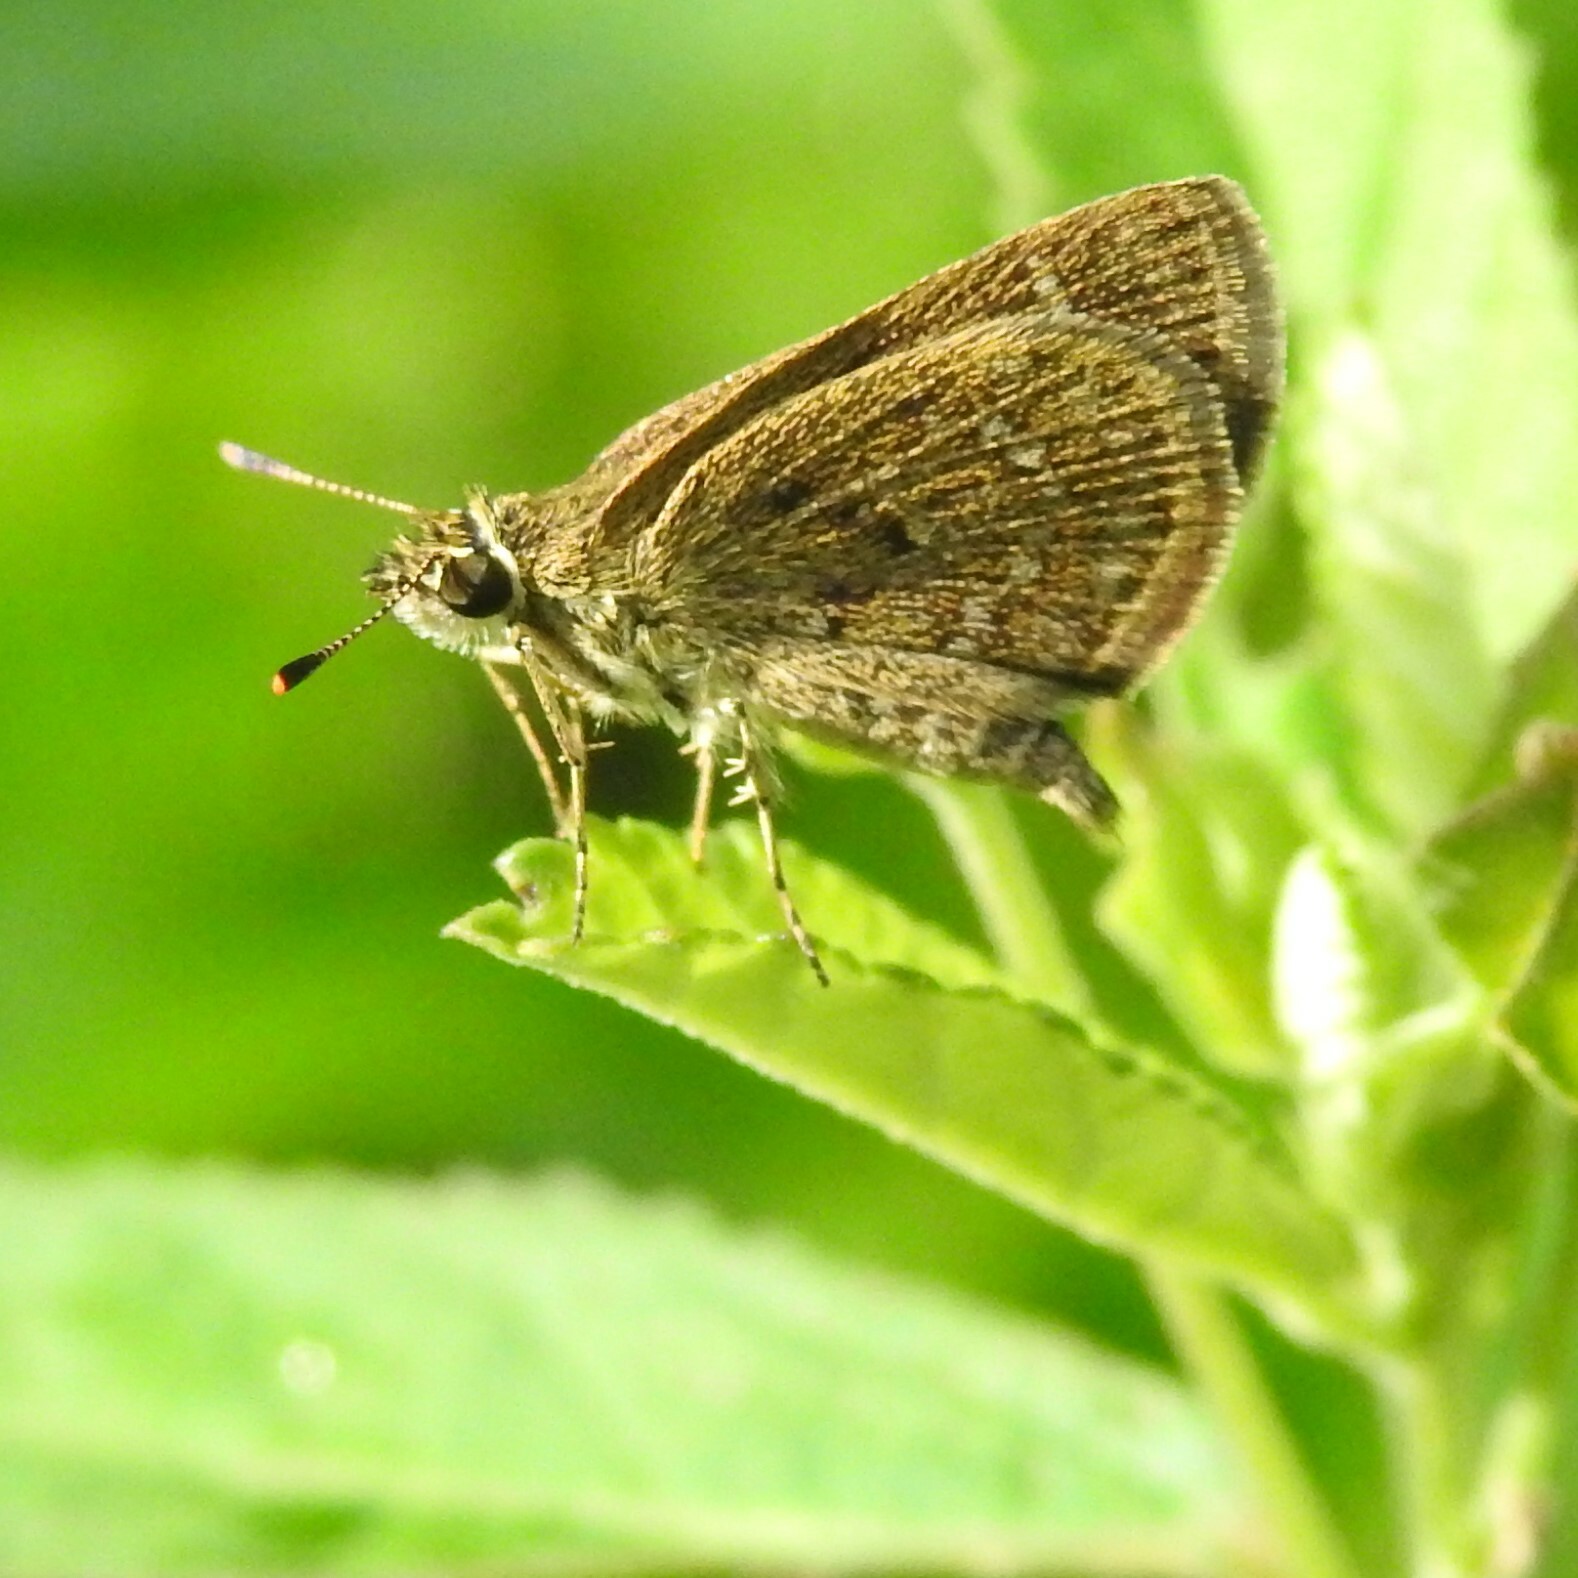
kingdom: Animalia
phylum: Arthropoda
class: Insecta
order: Lepidoptera
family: Hesperiidae
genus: Aeromachus
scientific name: Aeromachus pygmaeus
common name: Pygmy scrub hopper
